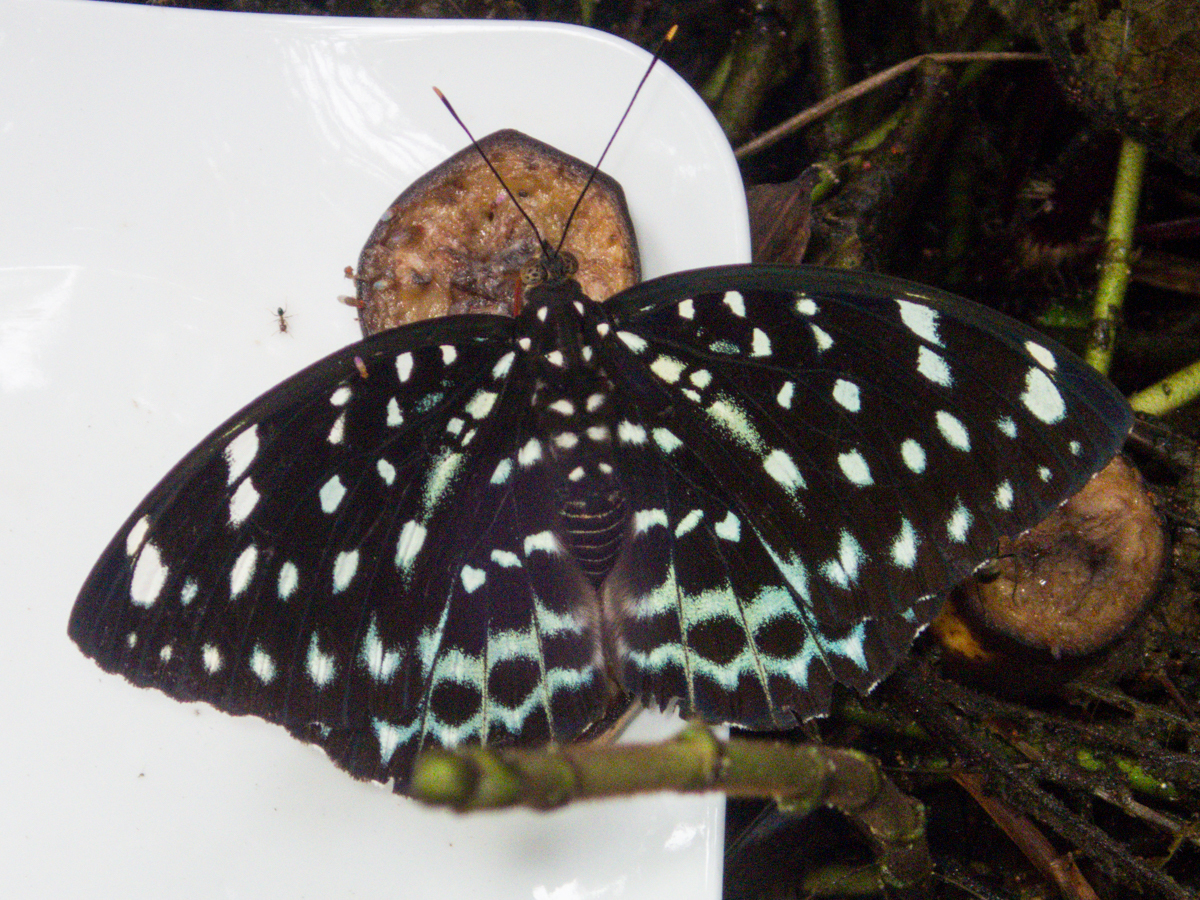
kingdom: Animalia
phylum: Arthropoda
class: Insecta
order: Lepidoptera
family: Nymphalidae
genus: Lexias
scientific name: Lexias
